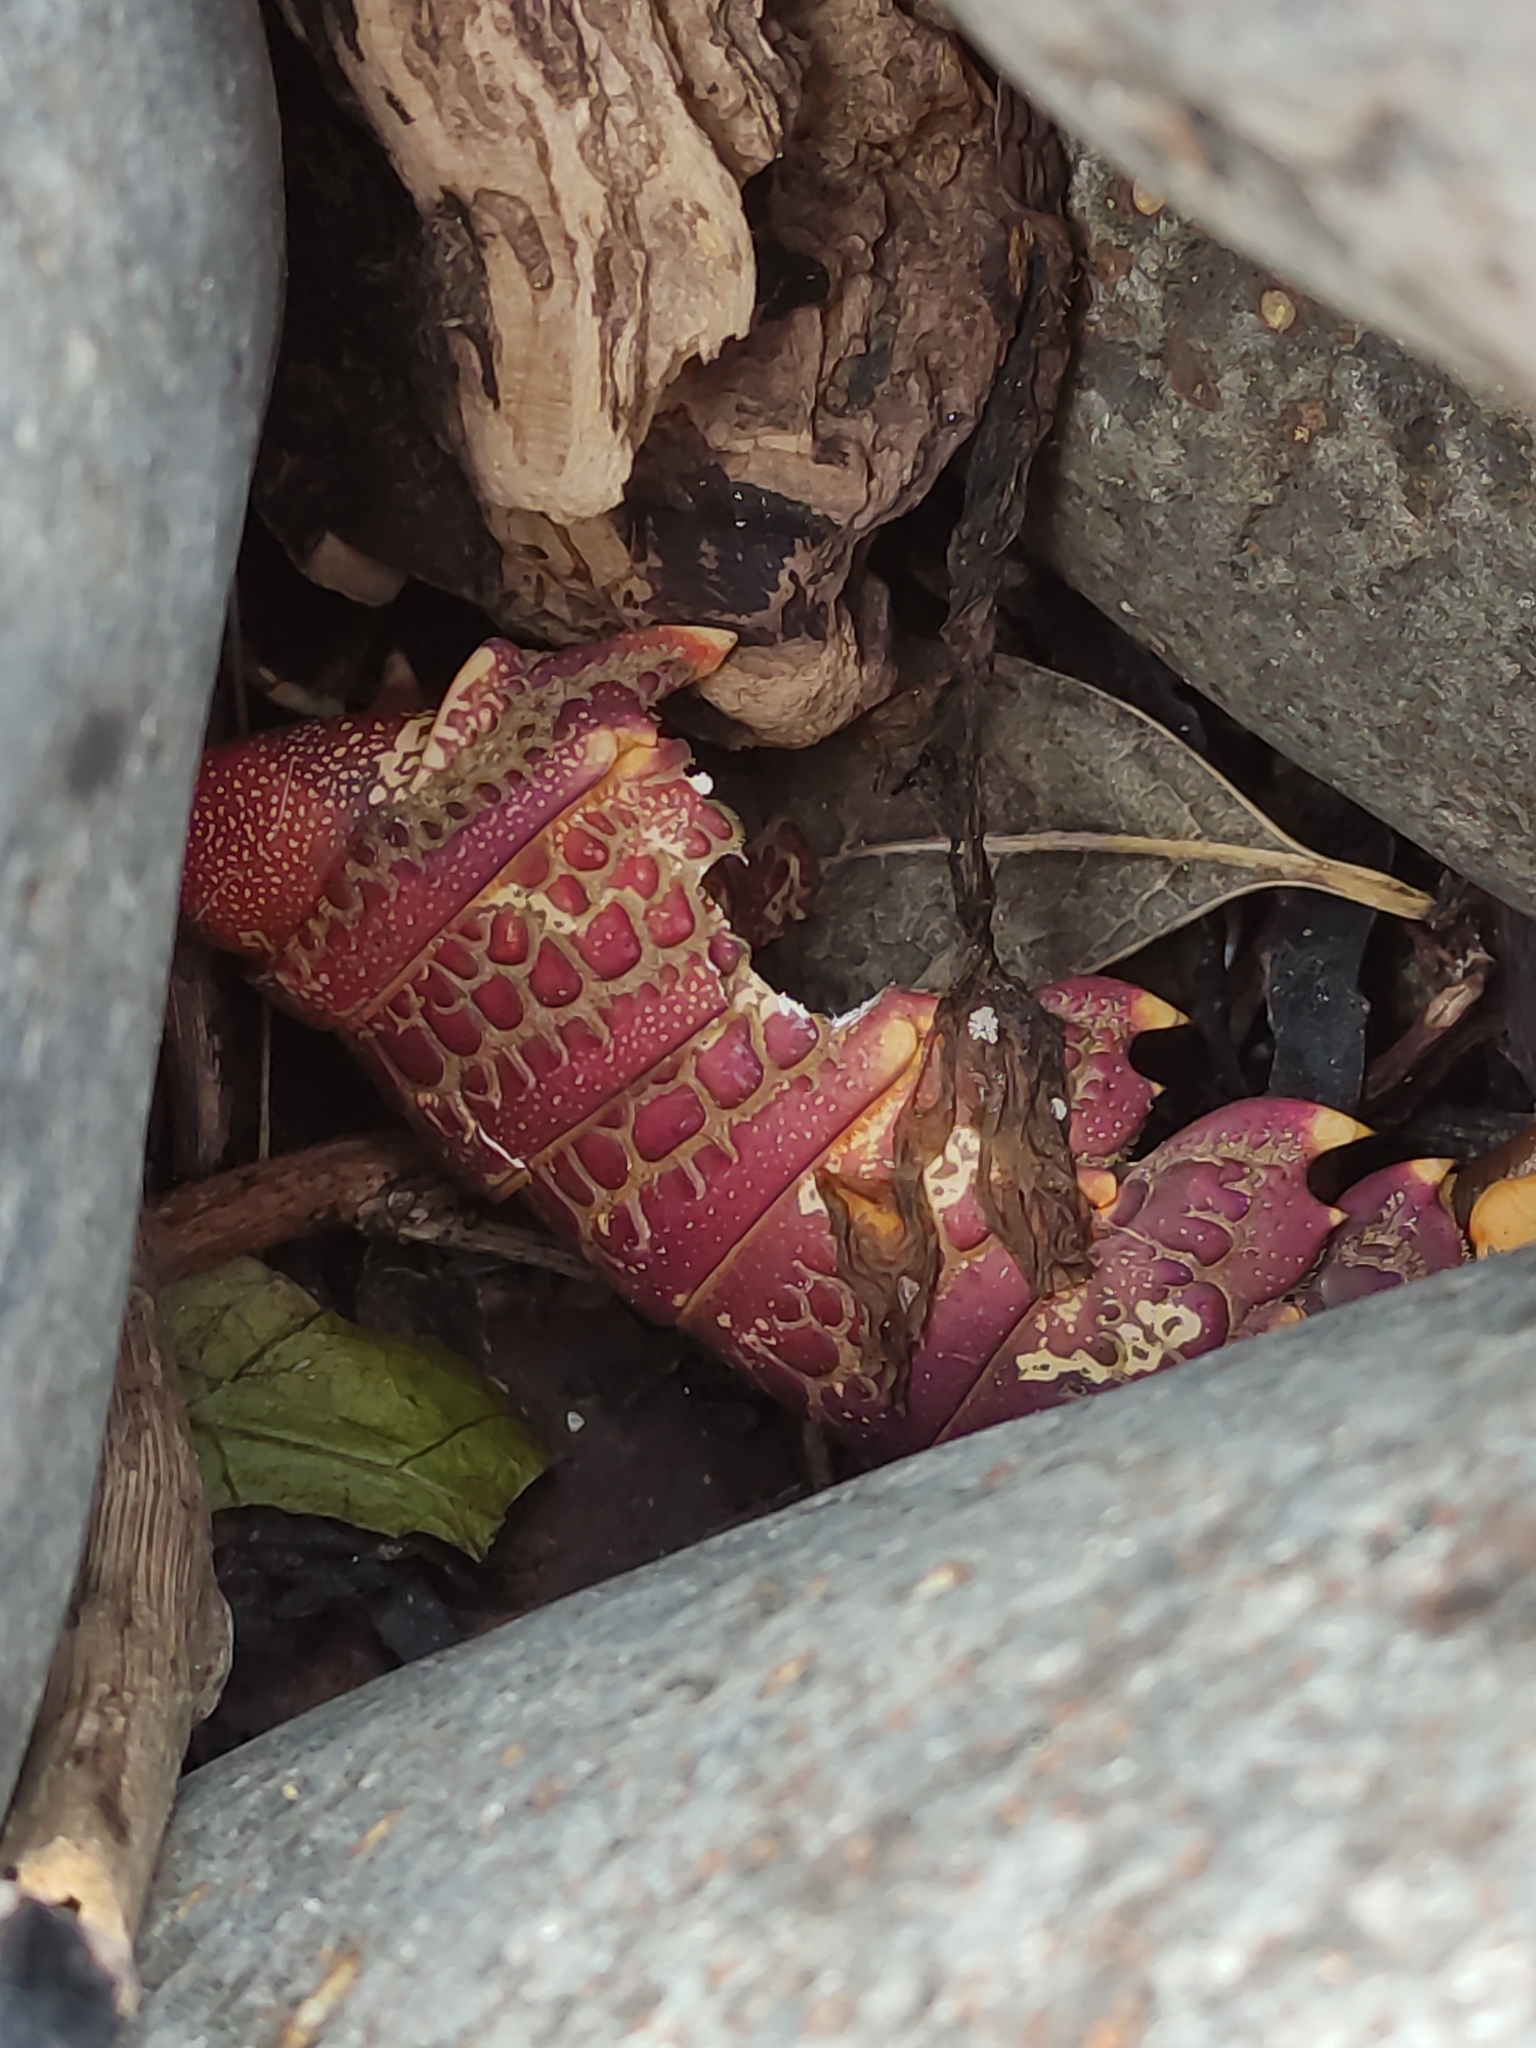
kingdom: Animalia
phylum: Arthropoda
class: Malacostraca
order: Decapoda
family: Palinuridae
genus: Jasus
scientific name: Jasus edwardsii
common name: Red rock lobster
